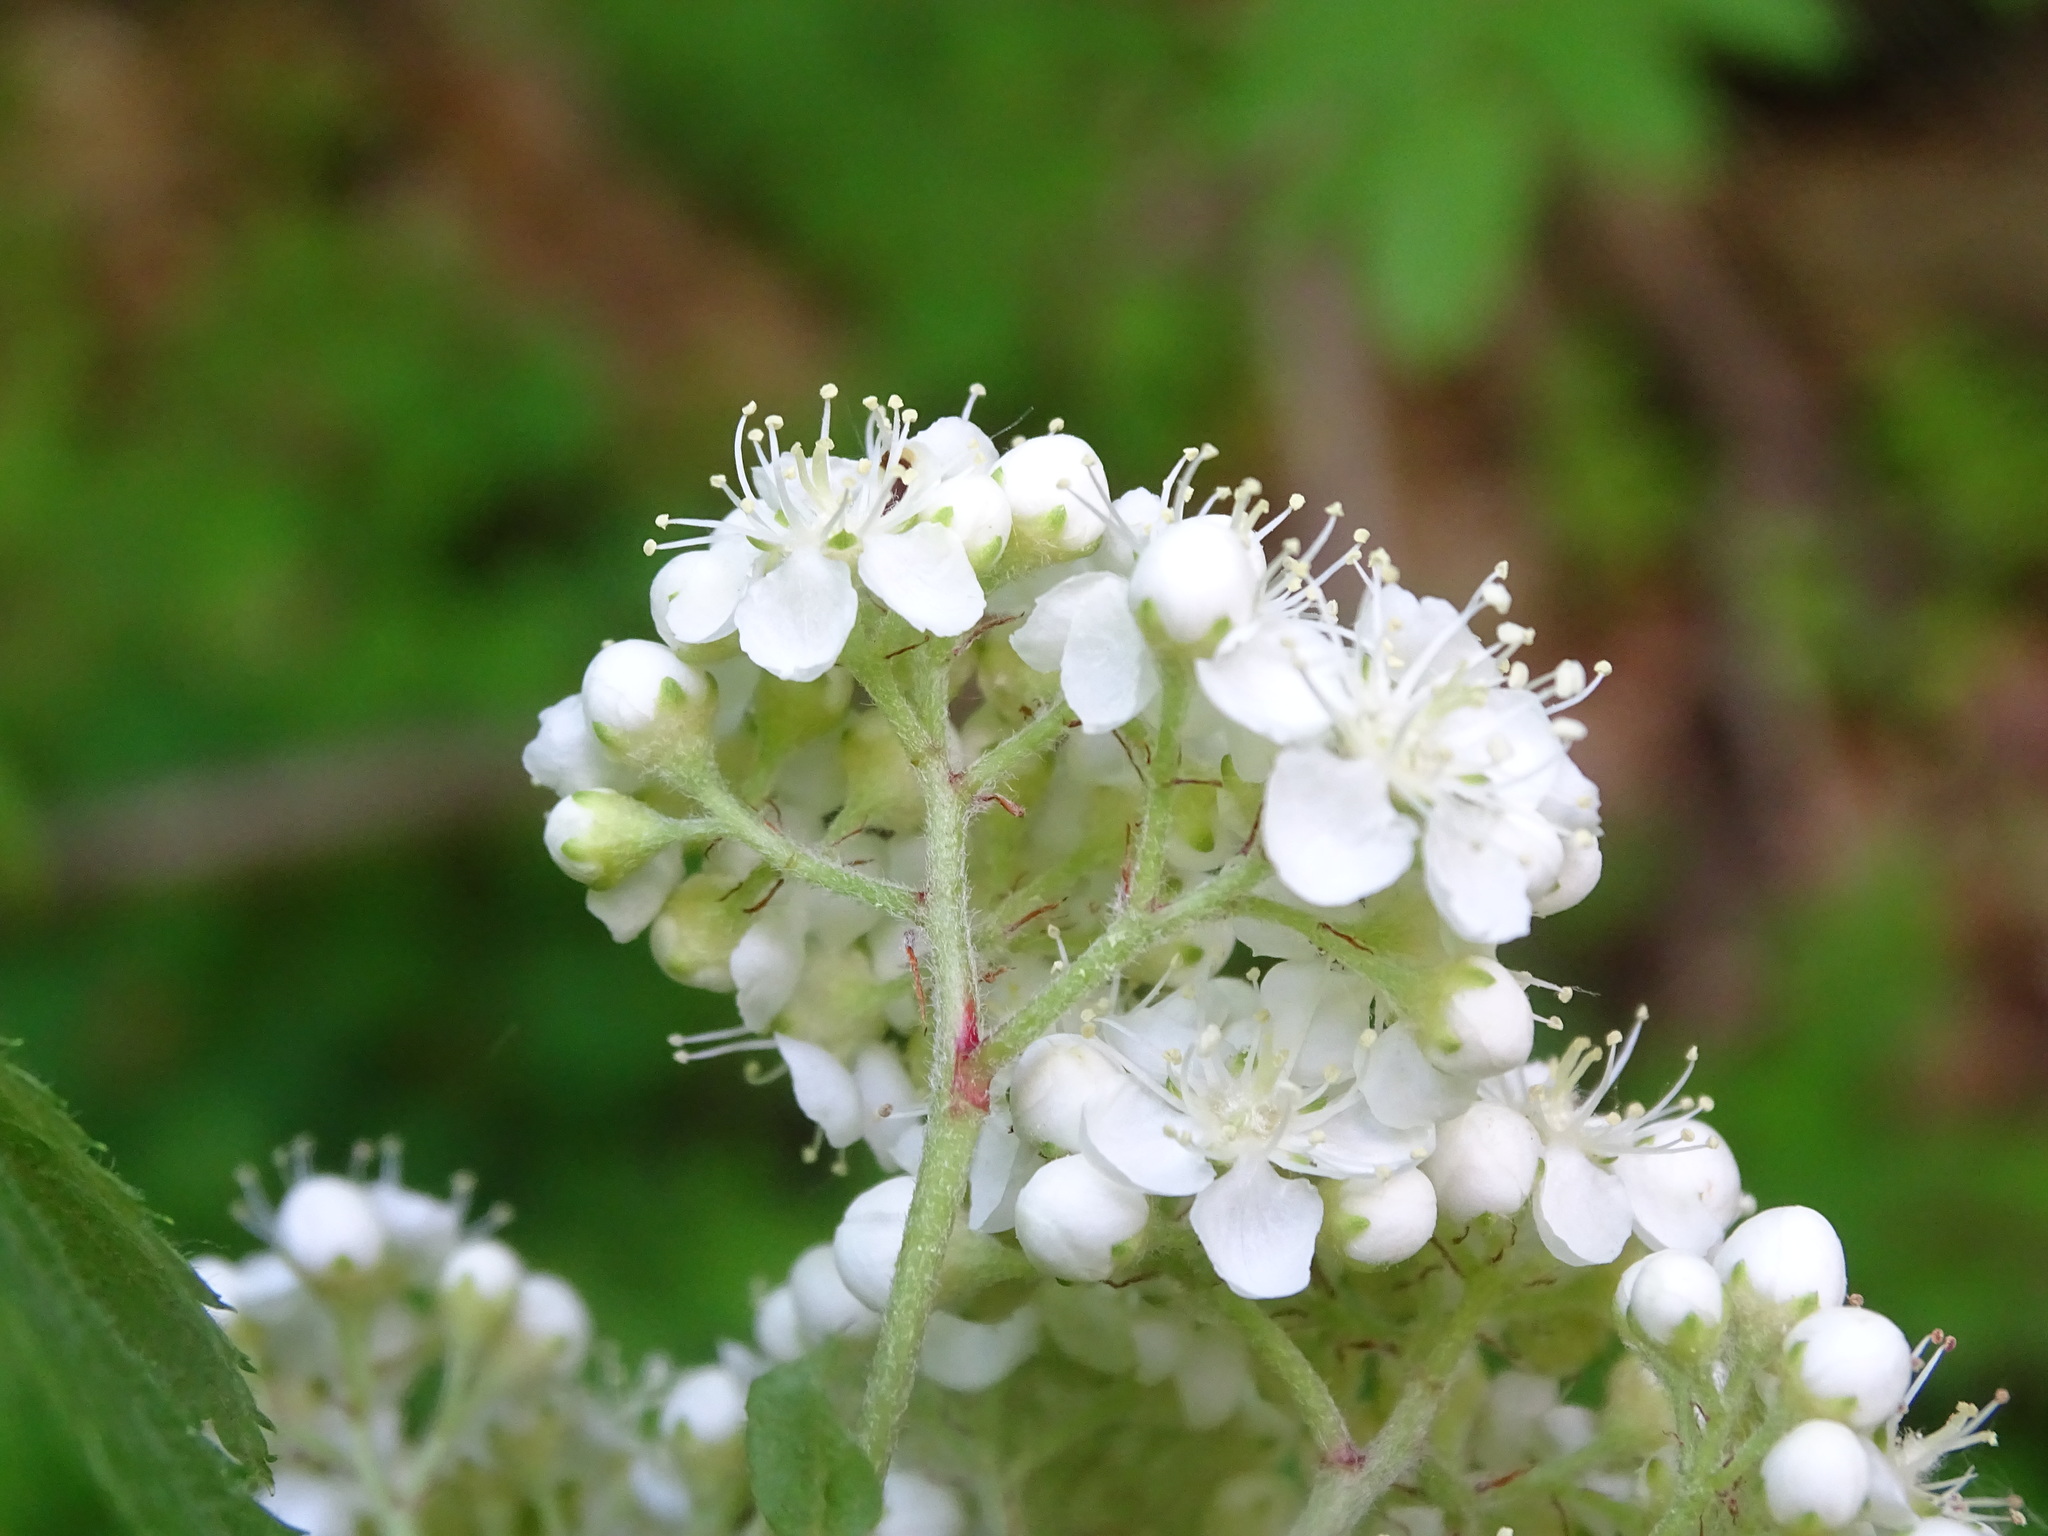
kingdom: Plantae
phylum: Tracheophyta
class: Magnoliopsida
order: Rosales
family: Rosaceae
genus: Sorbus
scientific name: Sorbus aucuparia
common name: Rowan
